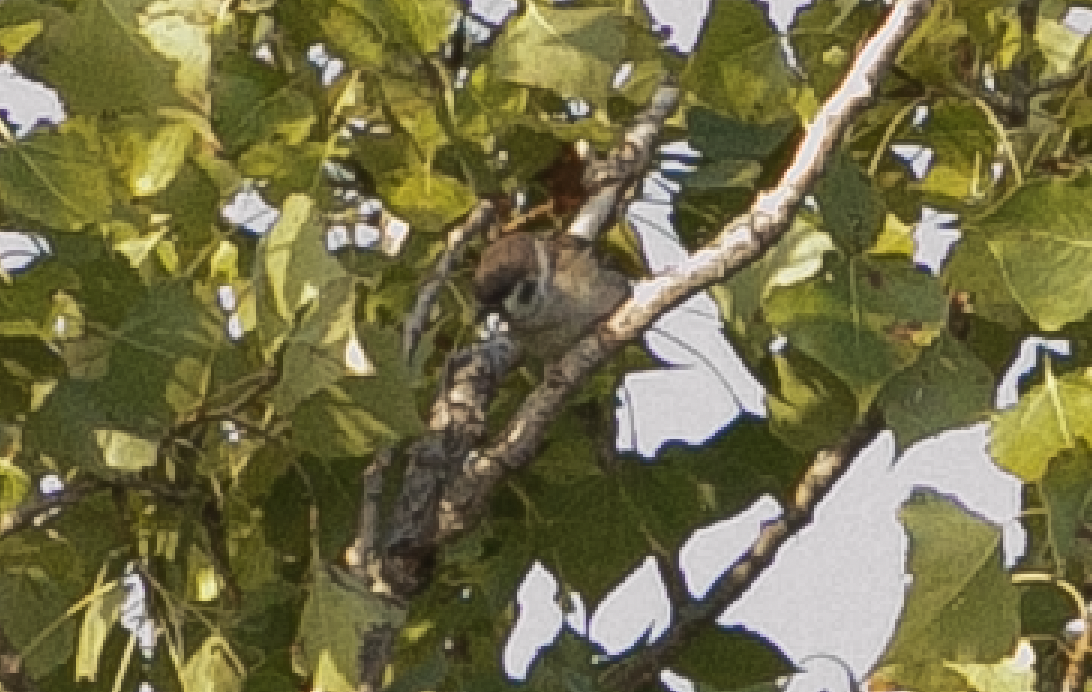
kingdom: Animalia
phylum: Chordata
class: Aves
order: Passeriformes
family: Passeridae
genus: Passer
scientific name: Passer montanus
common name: Eurasian tree sparrow
